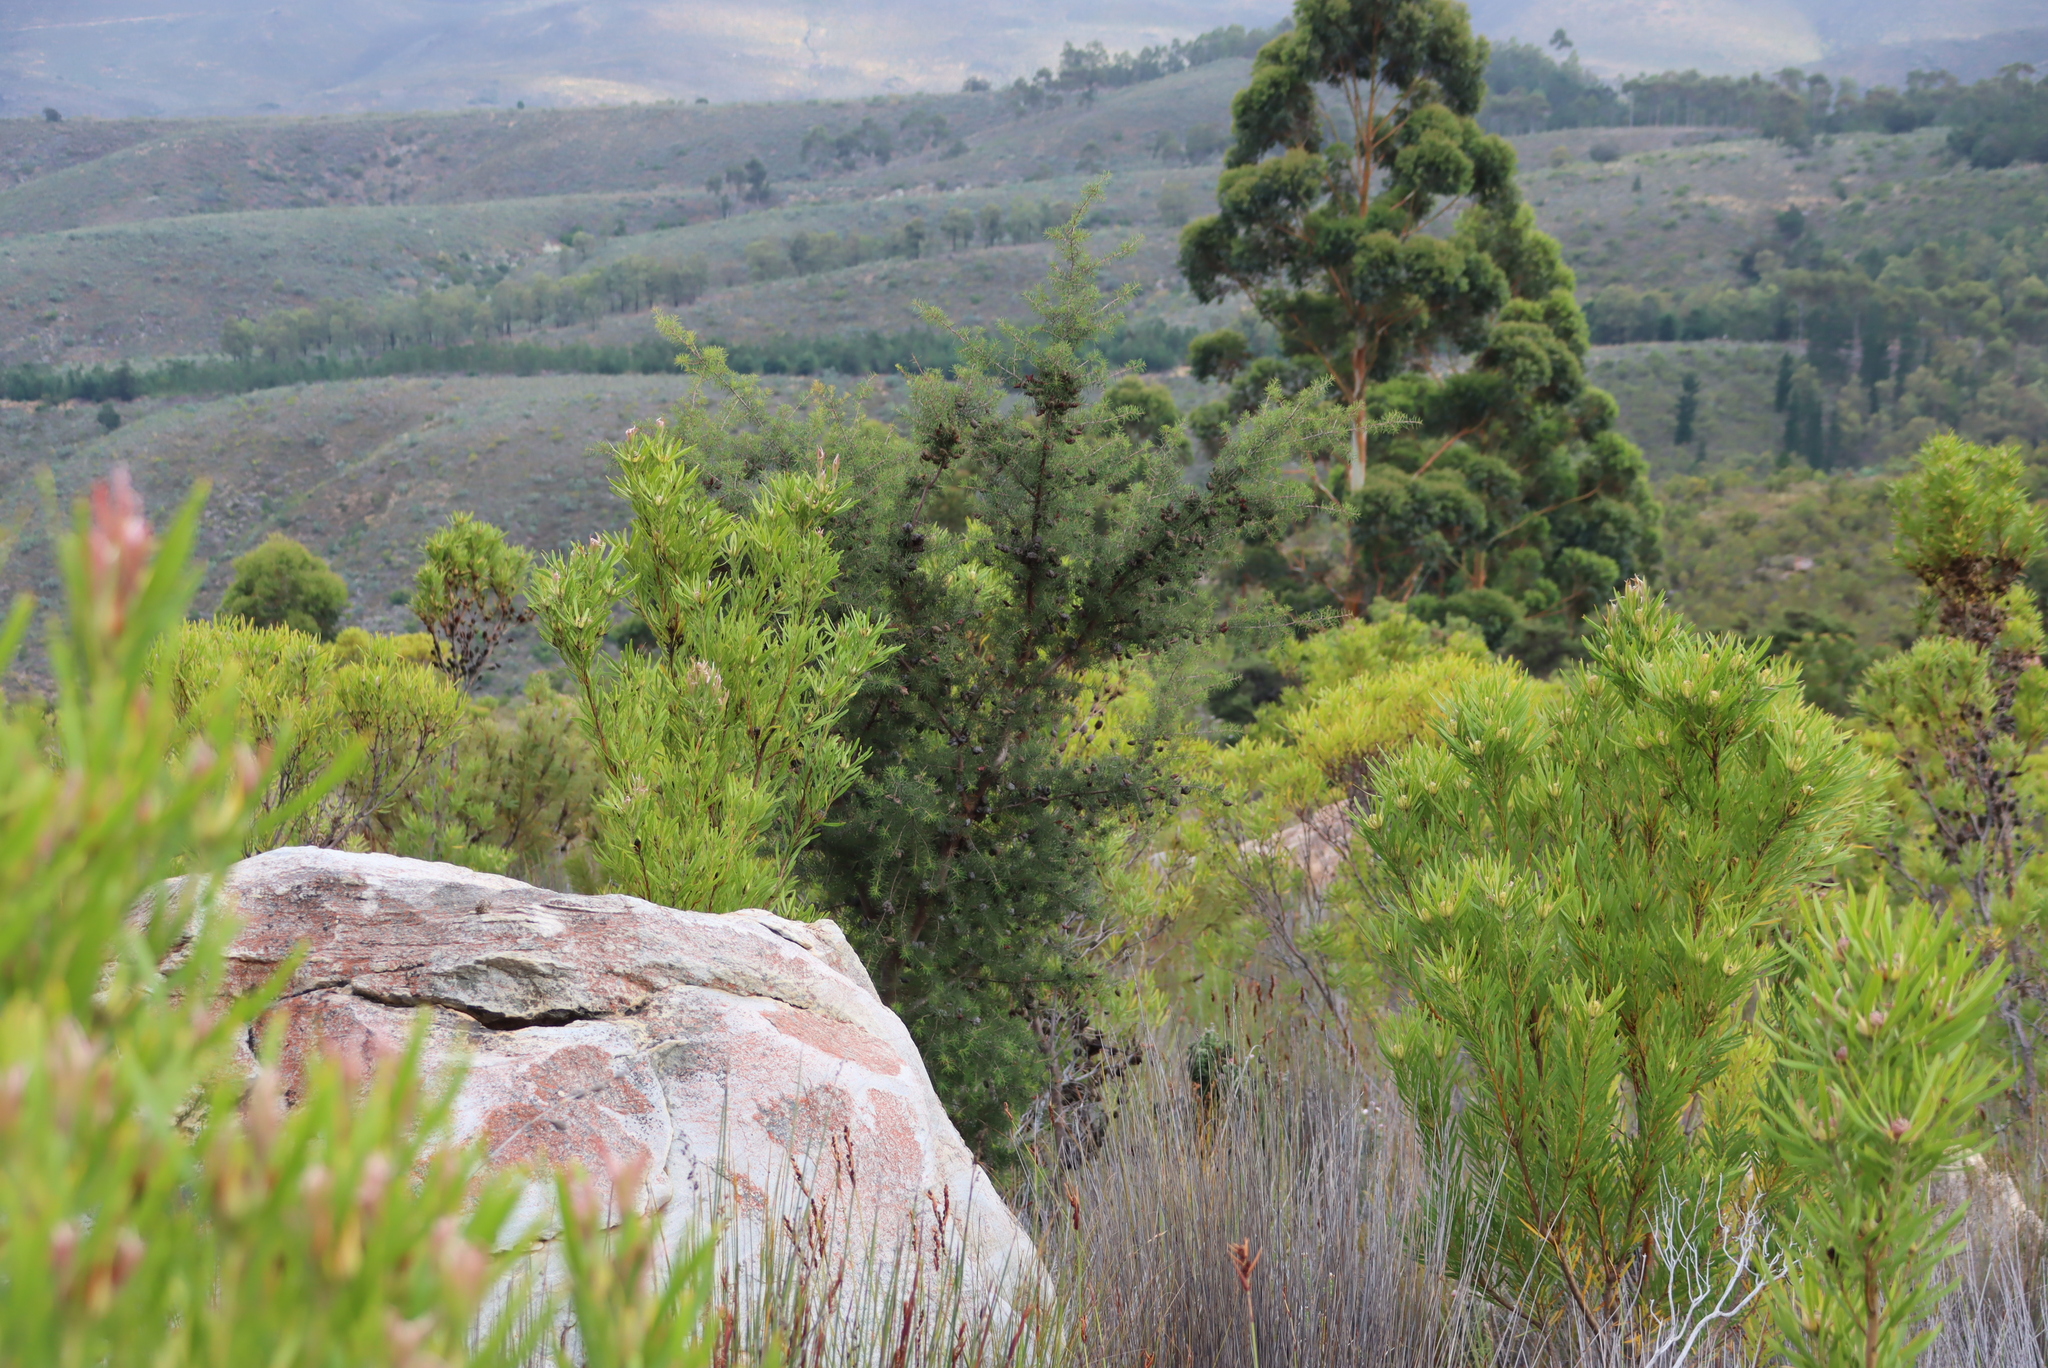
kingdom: Plantae
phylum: Tracheophyta
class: Magnoliopsida
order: Proteales
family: Proteaceae
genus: Hakea
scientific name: Hakea sericea
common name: Needle bush
